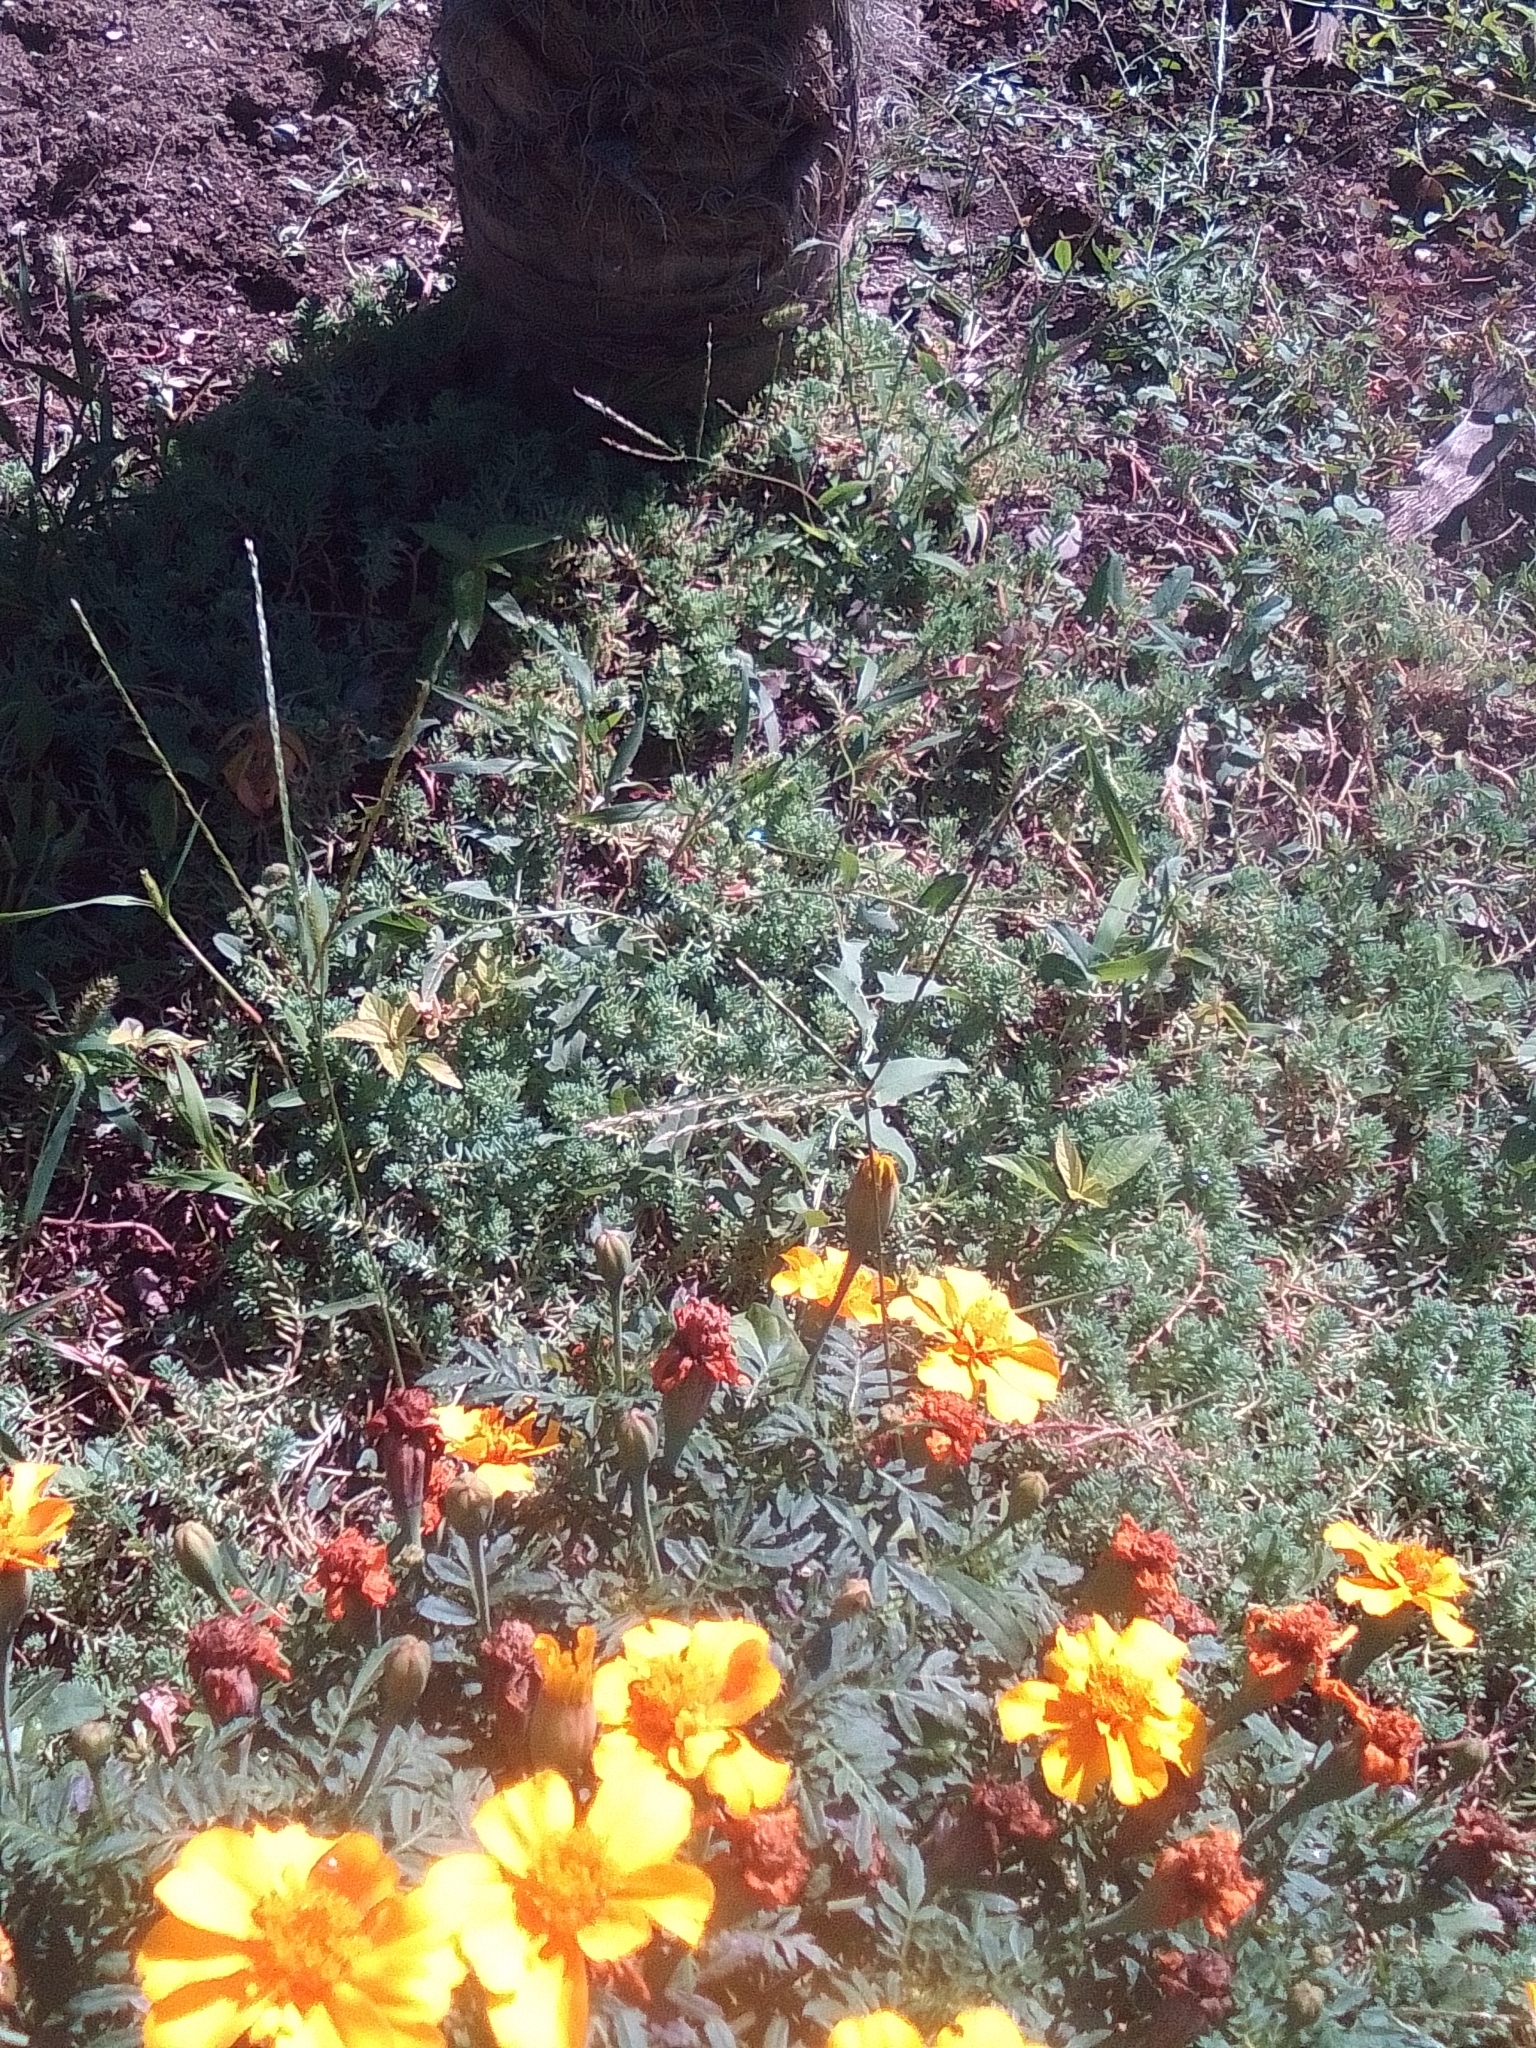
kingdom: Plantae
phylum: Tracheophyta
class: Liliopsida
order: Poales
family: Poaceae
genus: Digitaria
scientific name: Digitaria sanguinalis
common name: Hairy crabgrass
